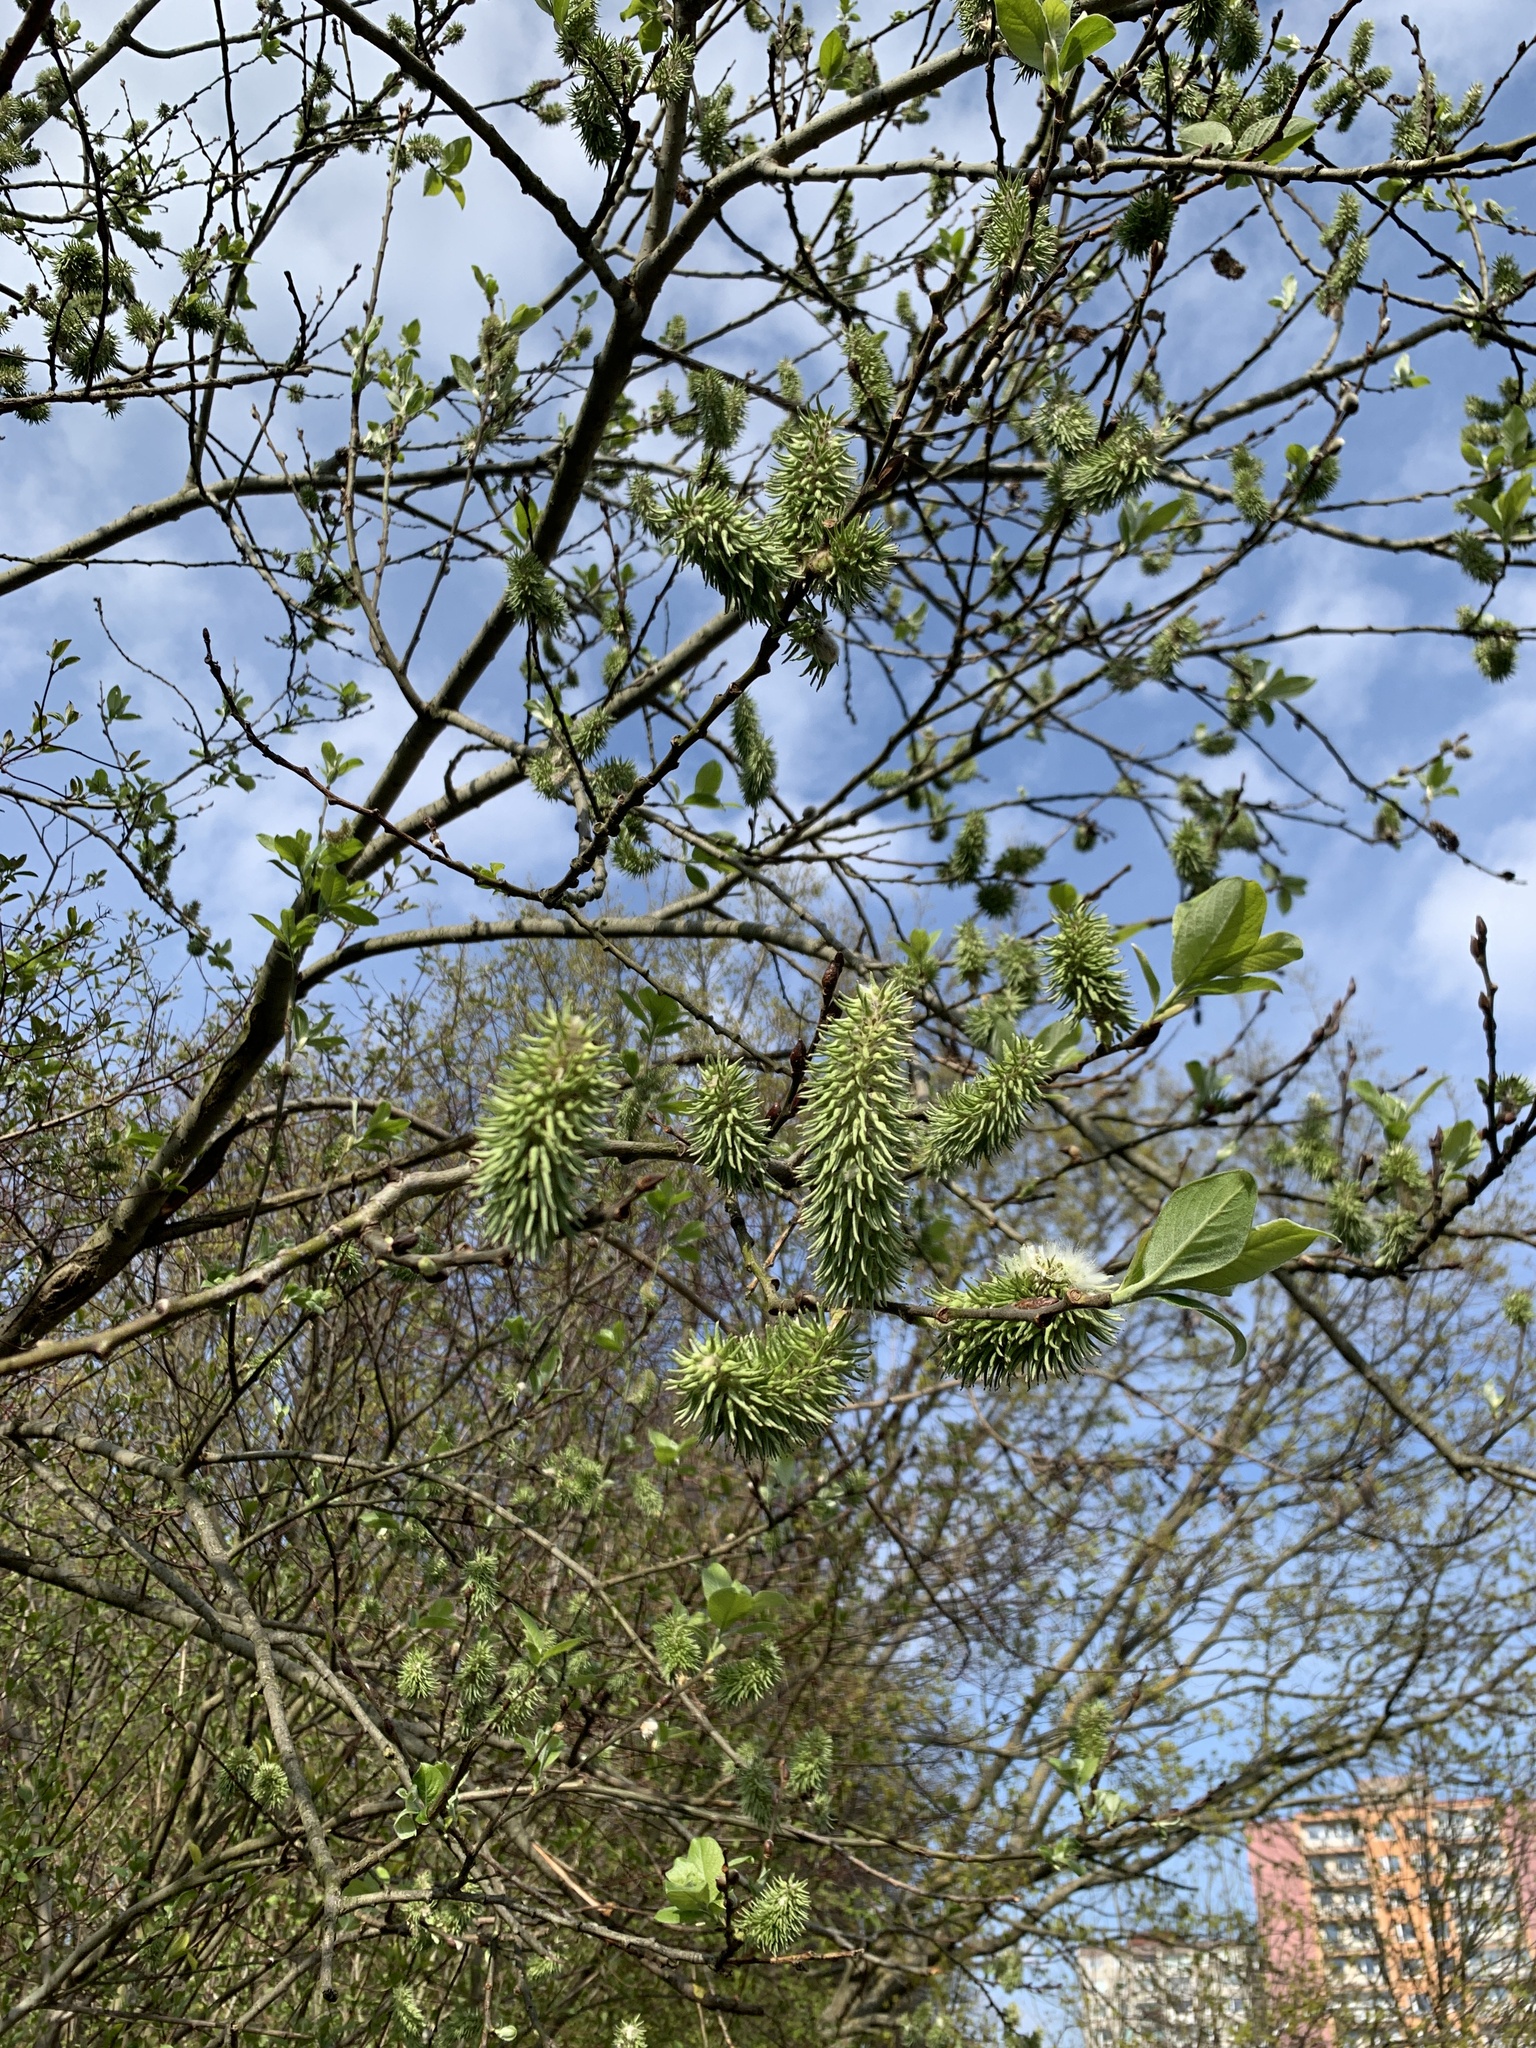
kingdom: Plantae
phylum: Tracheophyta
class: Magnoliopsida
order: Malpighiales
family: Salicaceae
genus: Salix
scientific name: Salix caprea
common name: Goat willow
